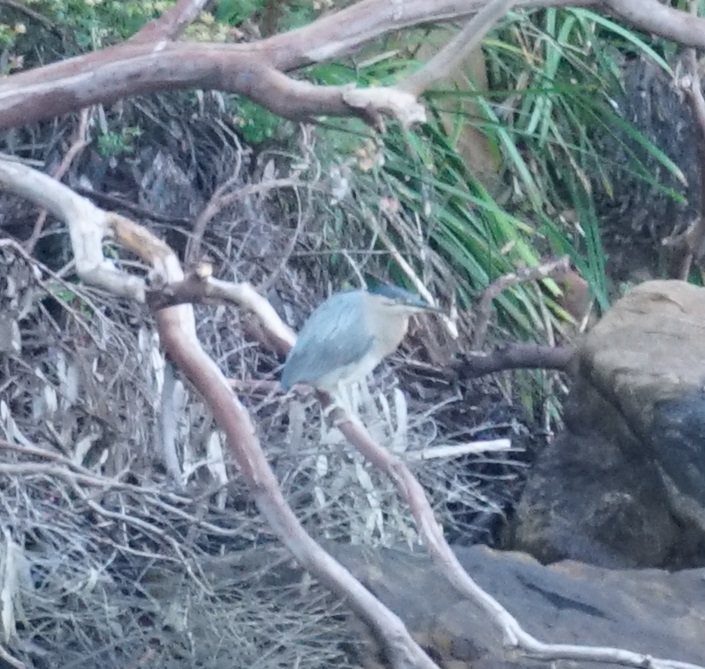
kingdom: Animalia
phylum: Chordata
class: Aves
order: Pelecaniformes
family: Ardeidae
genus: Butorides
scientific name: Butorides striata
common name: Striated heron
